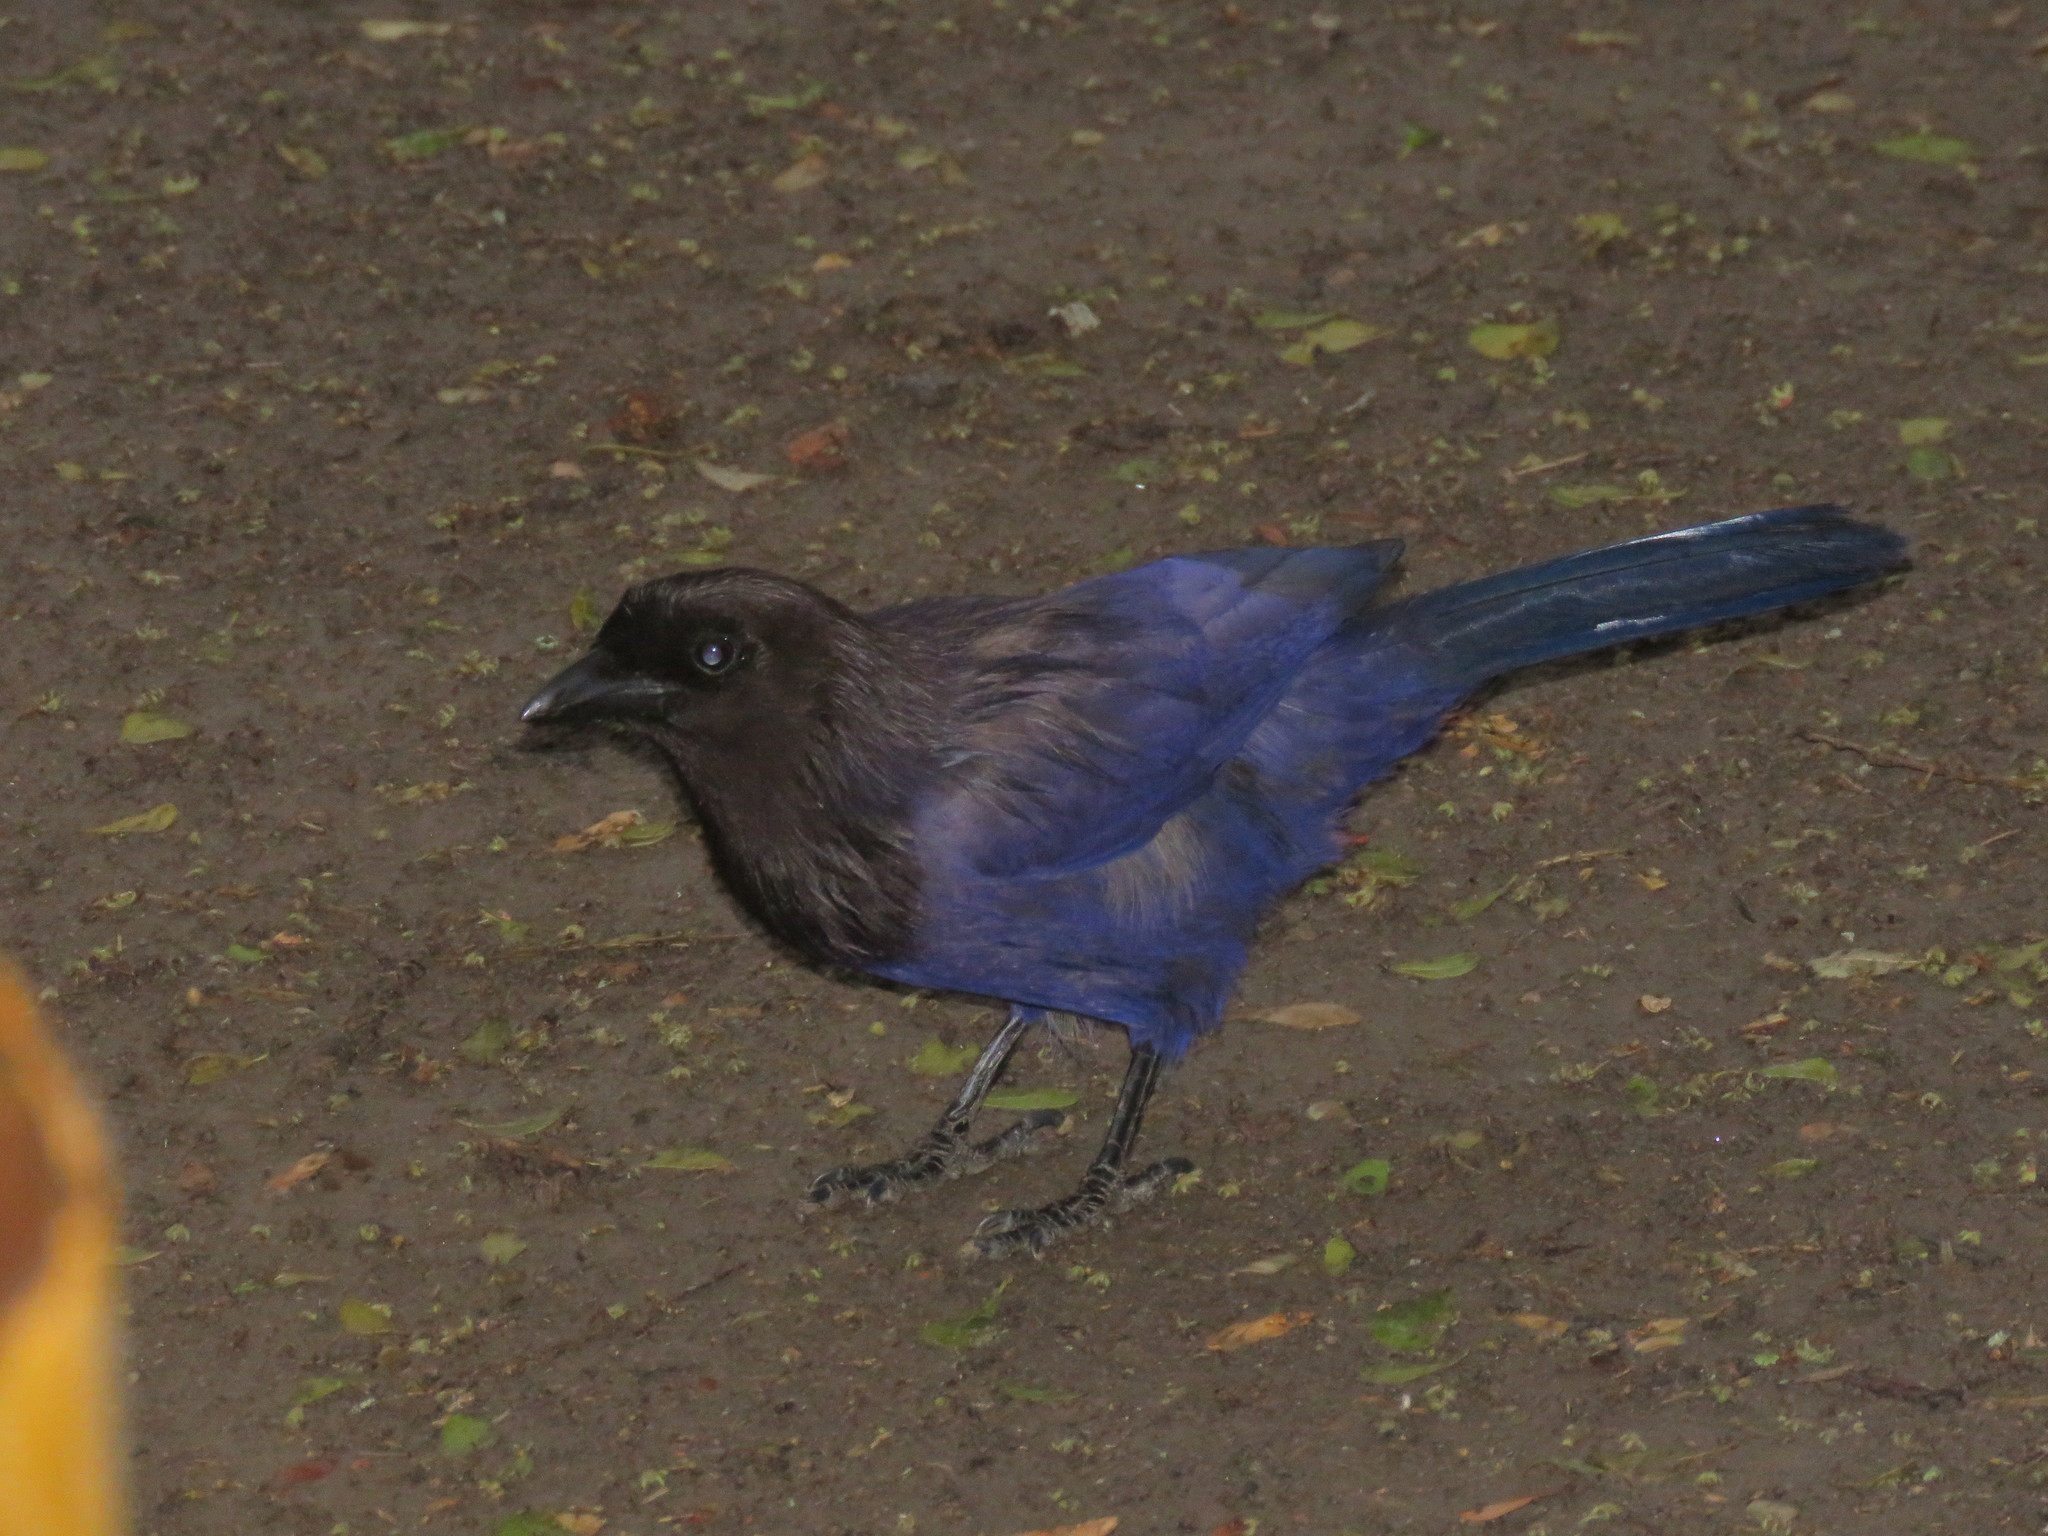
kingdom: Animalia
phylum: Chordata
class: Aves
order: Passeriformes
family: Corvidae
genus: Cyanocorax
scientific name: Cyanocorax cyanomelas
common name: Purplish jay
